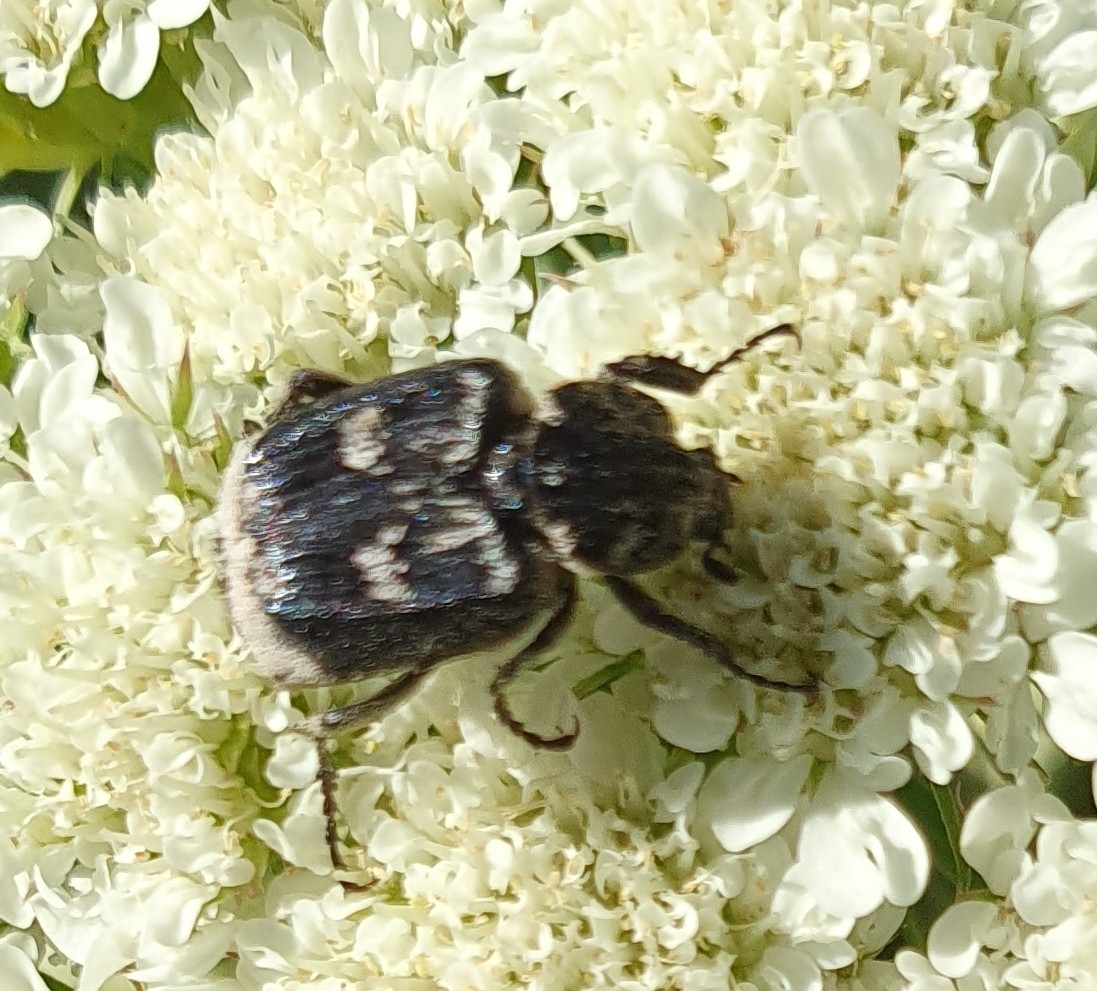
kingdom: Animalia
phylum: Arthropoda
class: Insecta
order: Coleoptera
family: Scarabaeidae
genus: Valgus
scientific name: Valgus hemipterus
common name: Bug flower chafer
